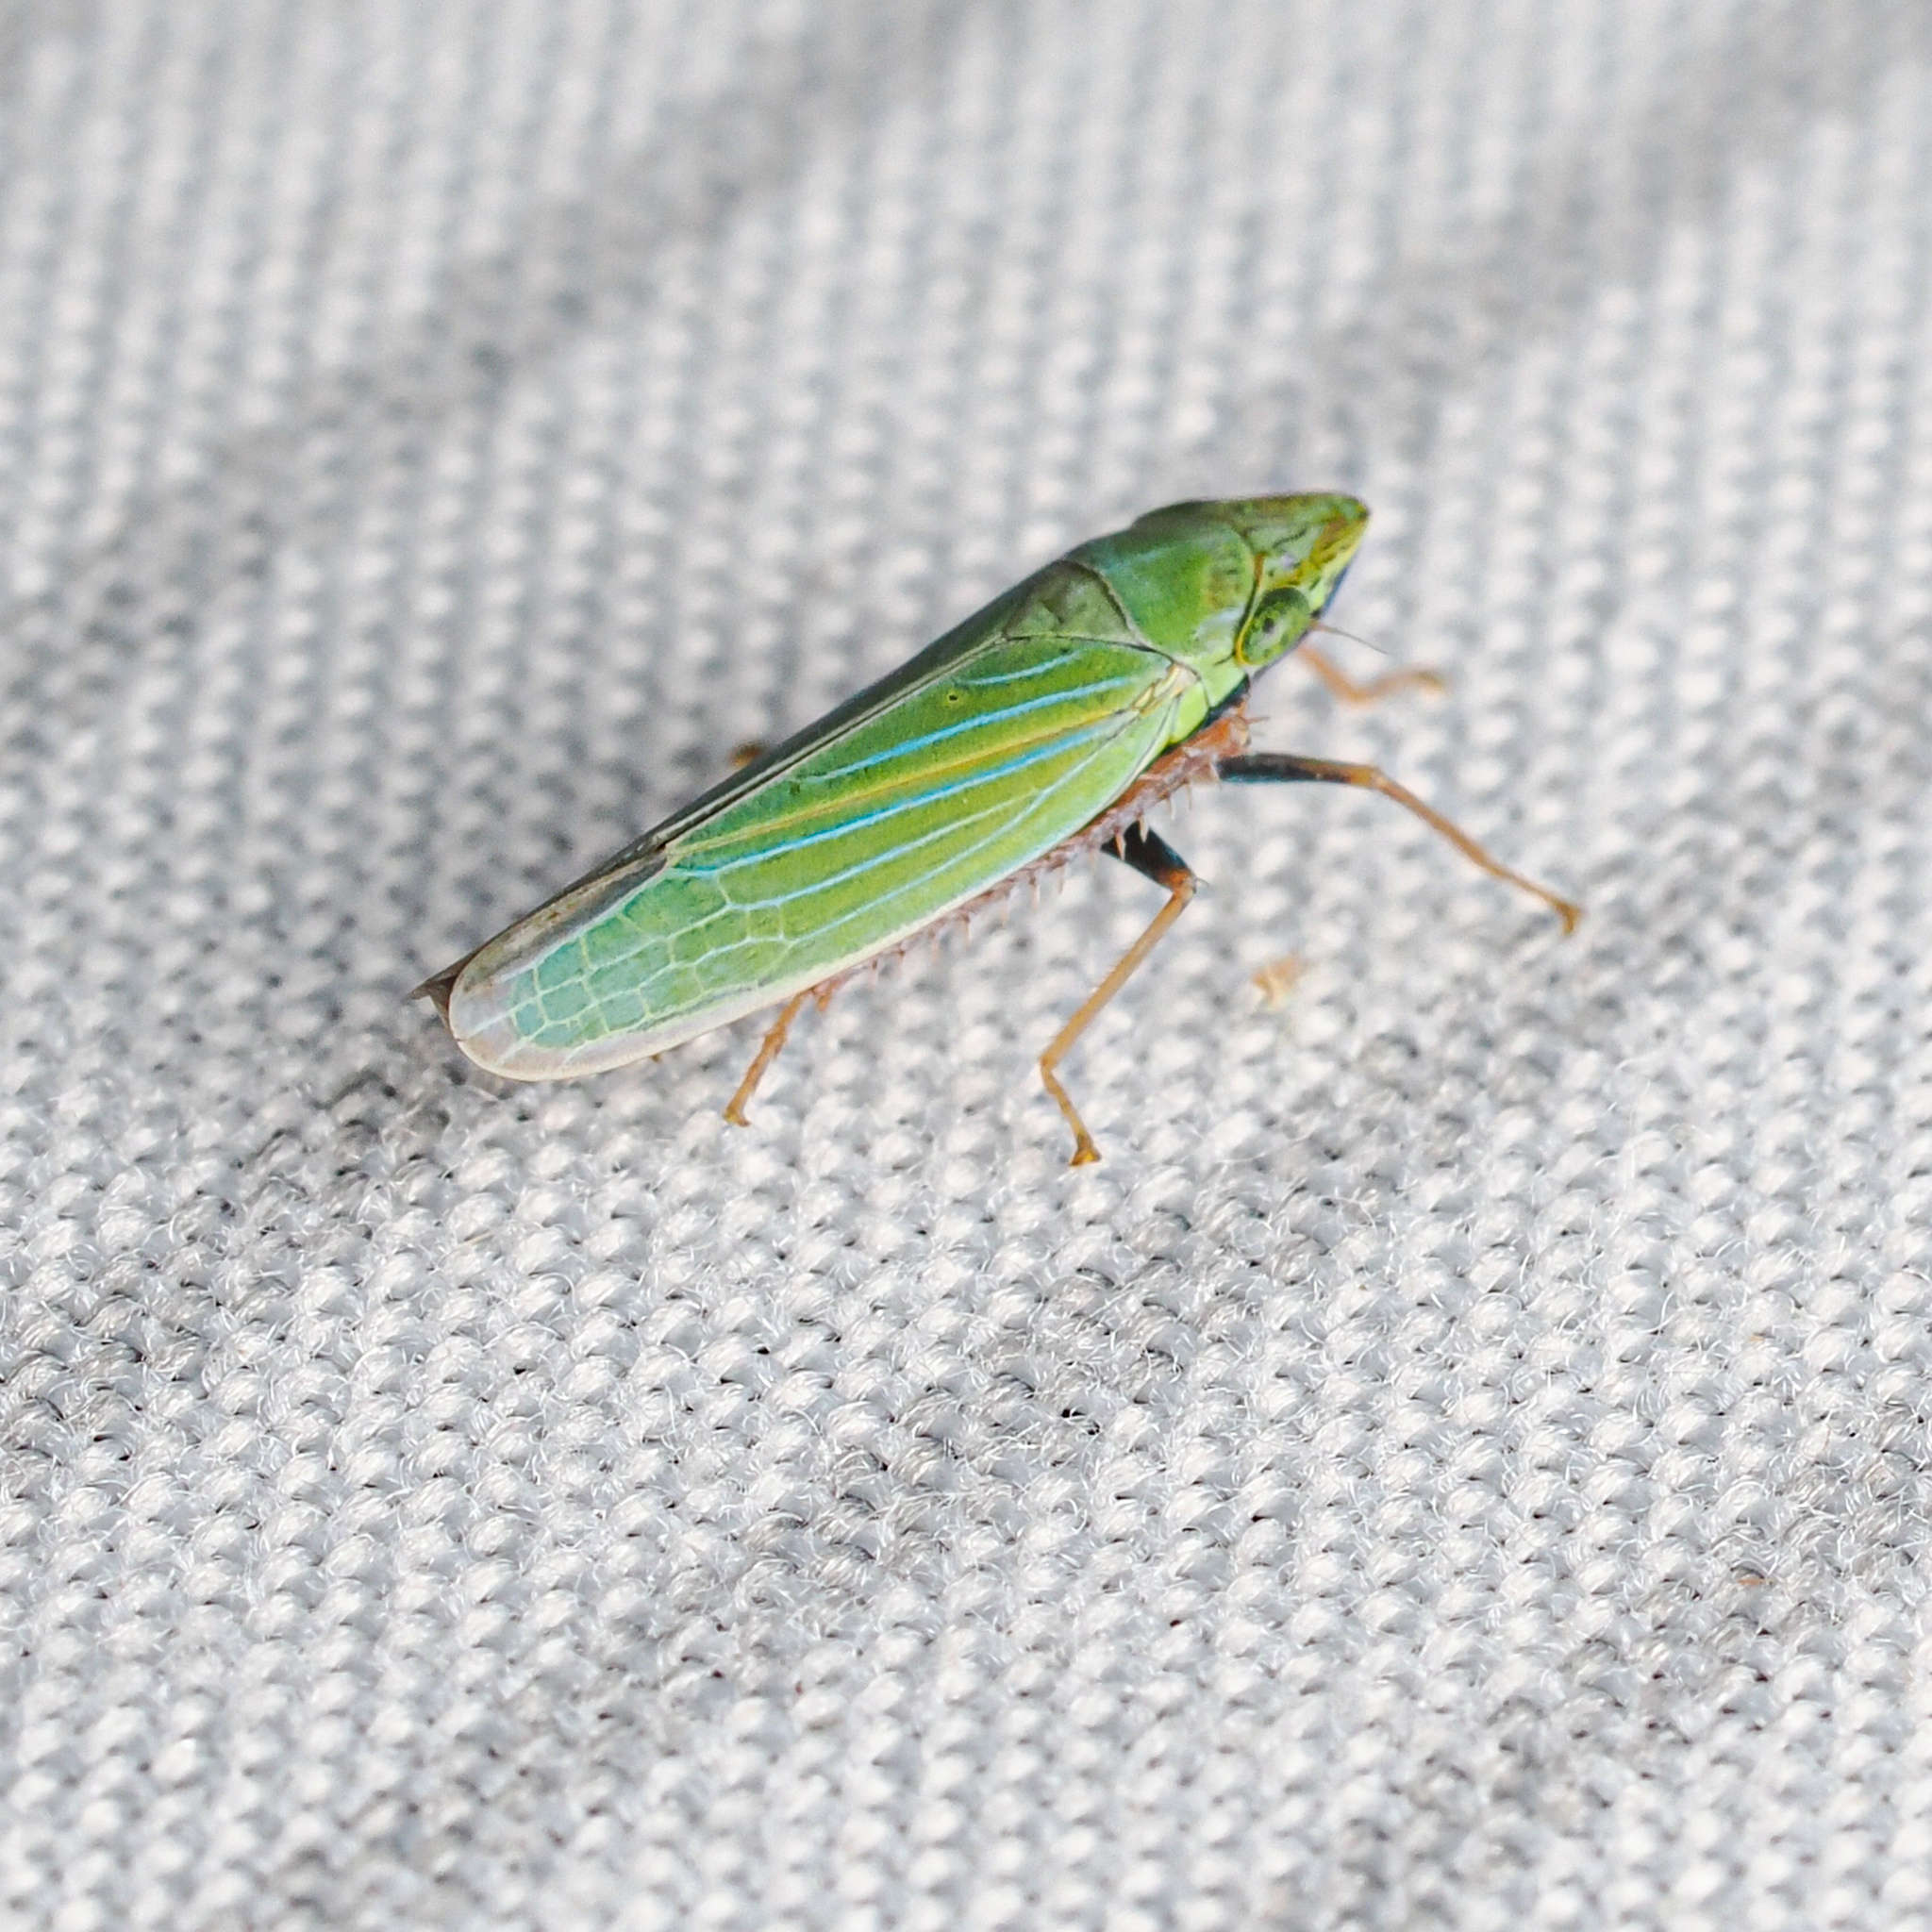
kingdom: Animalia
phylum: Arthropoda
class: Insecta
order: Hemiptera
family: Cicadellidae
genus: Draeculacephala
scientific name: Draeculacephala robinsoni
